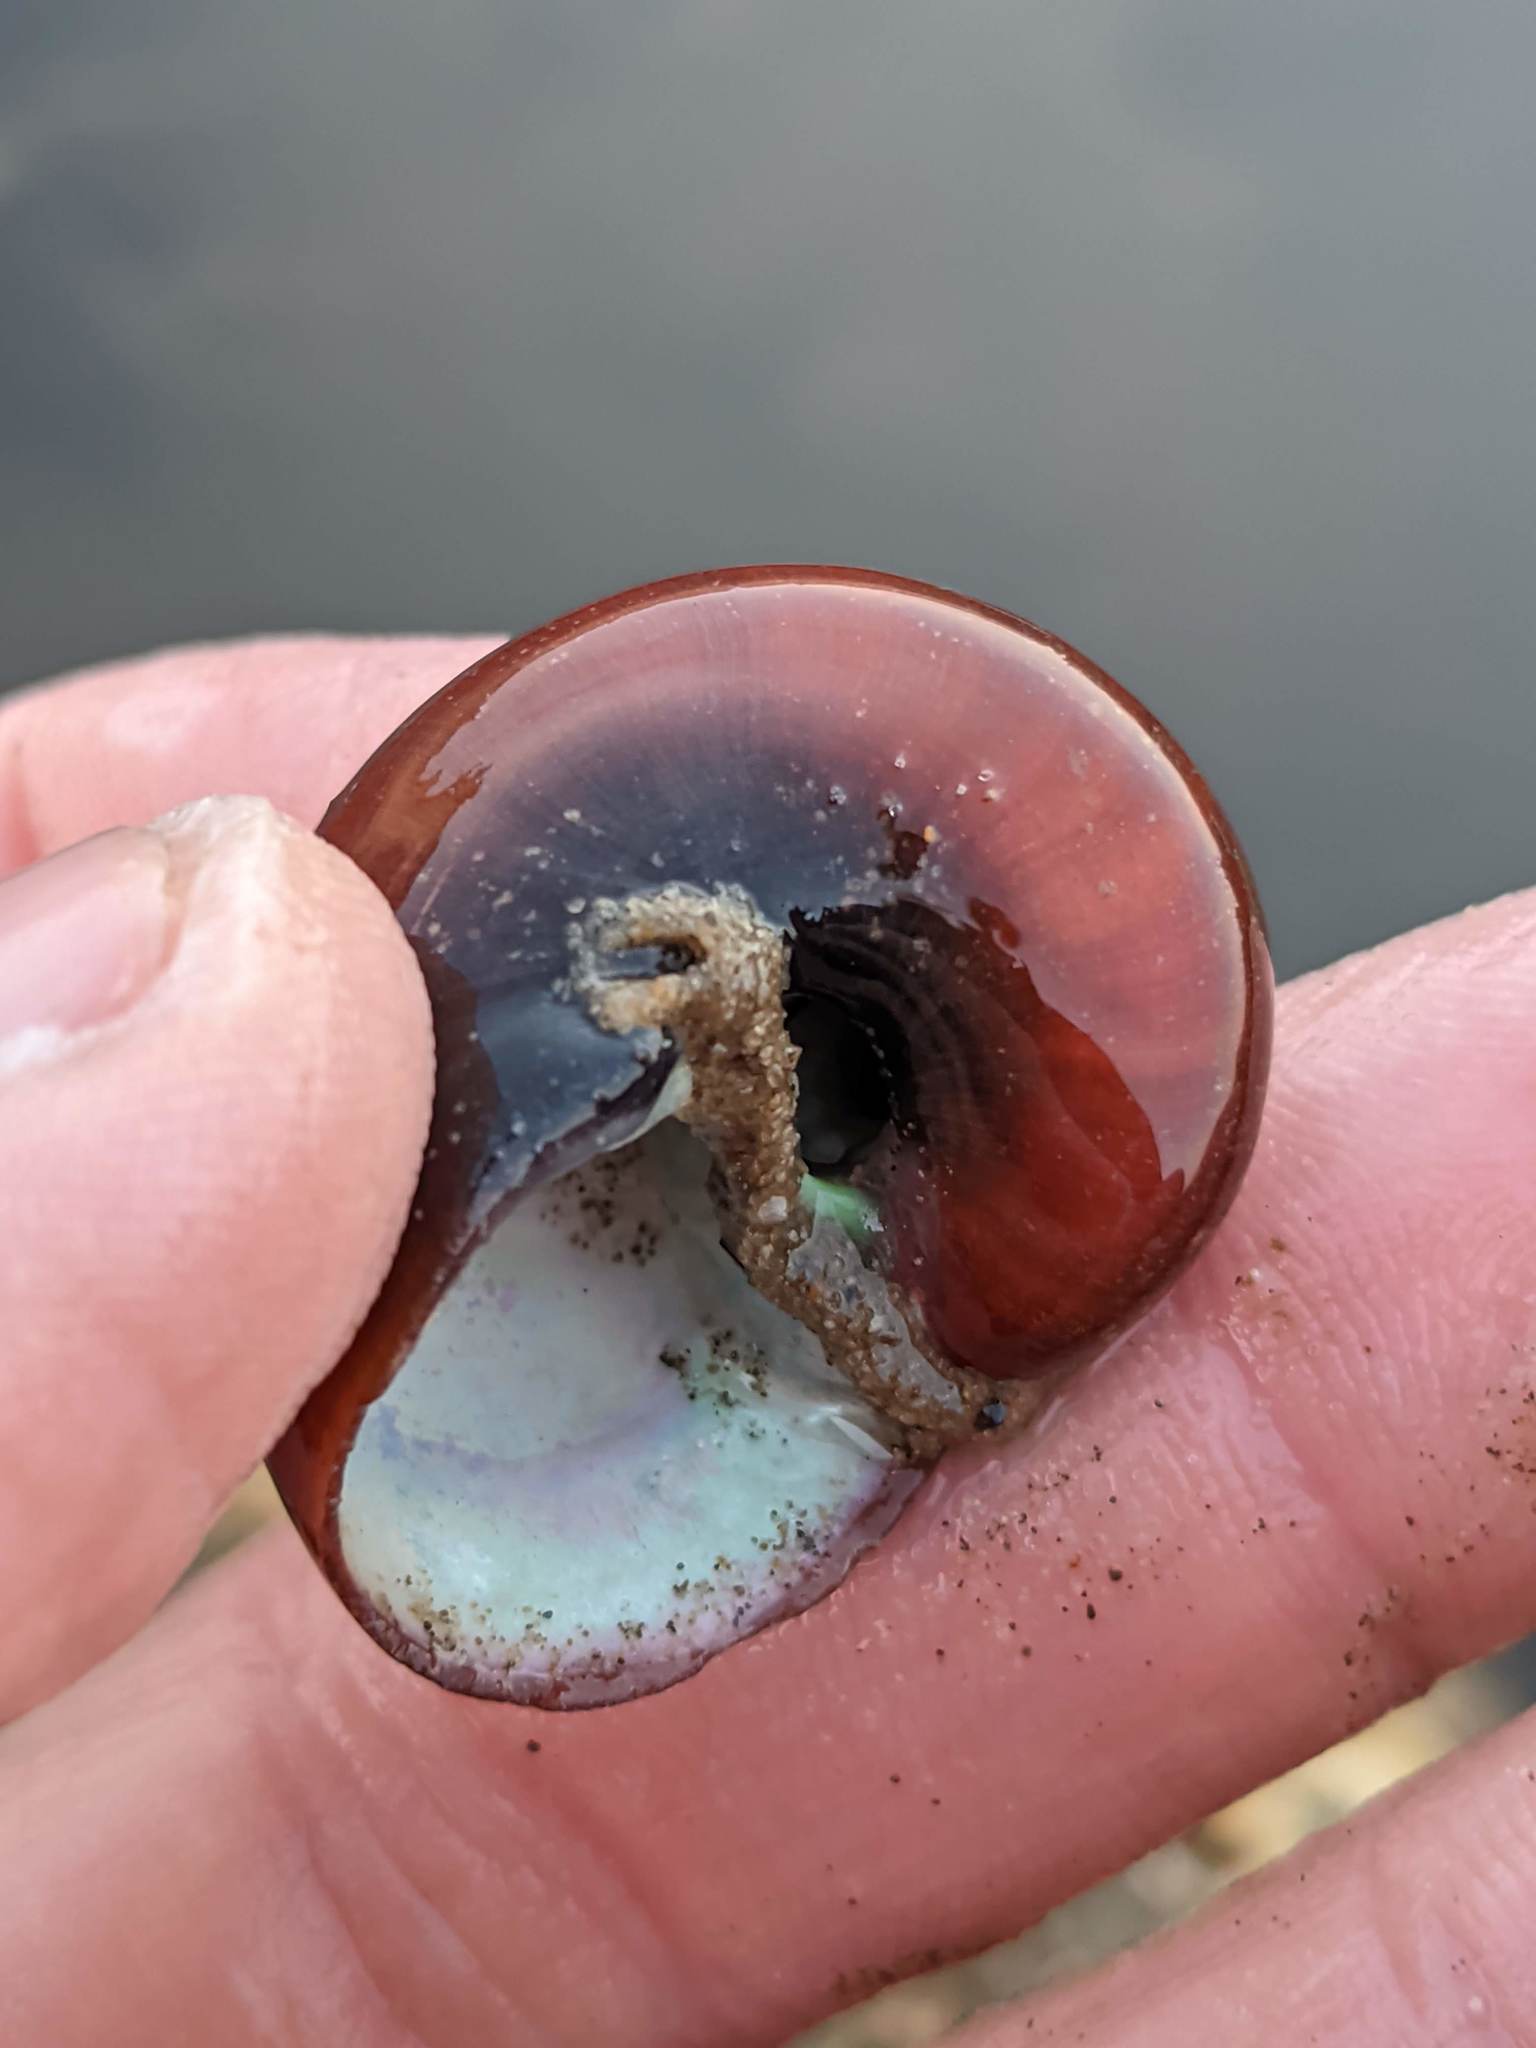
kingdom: Animalia
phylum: Mollusca
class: Gastropoda
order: Trochida
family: Tegulidae
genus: Norrisia
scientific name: Norrisia norrisii
